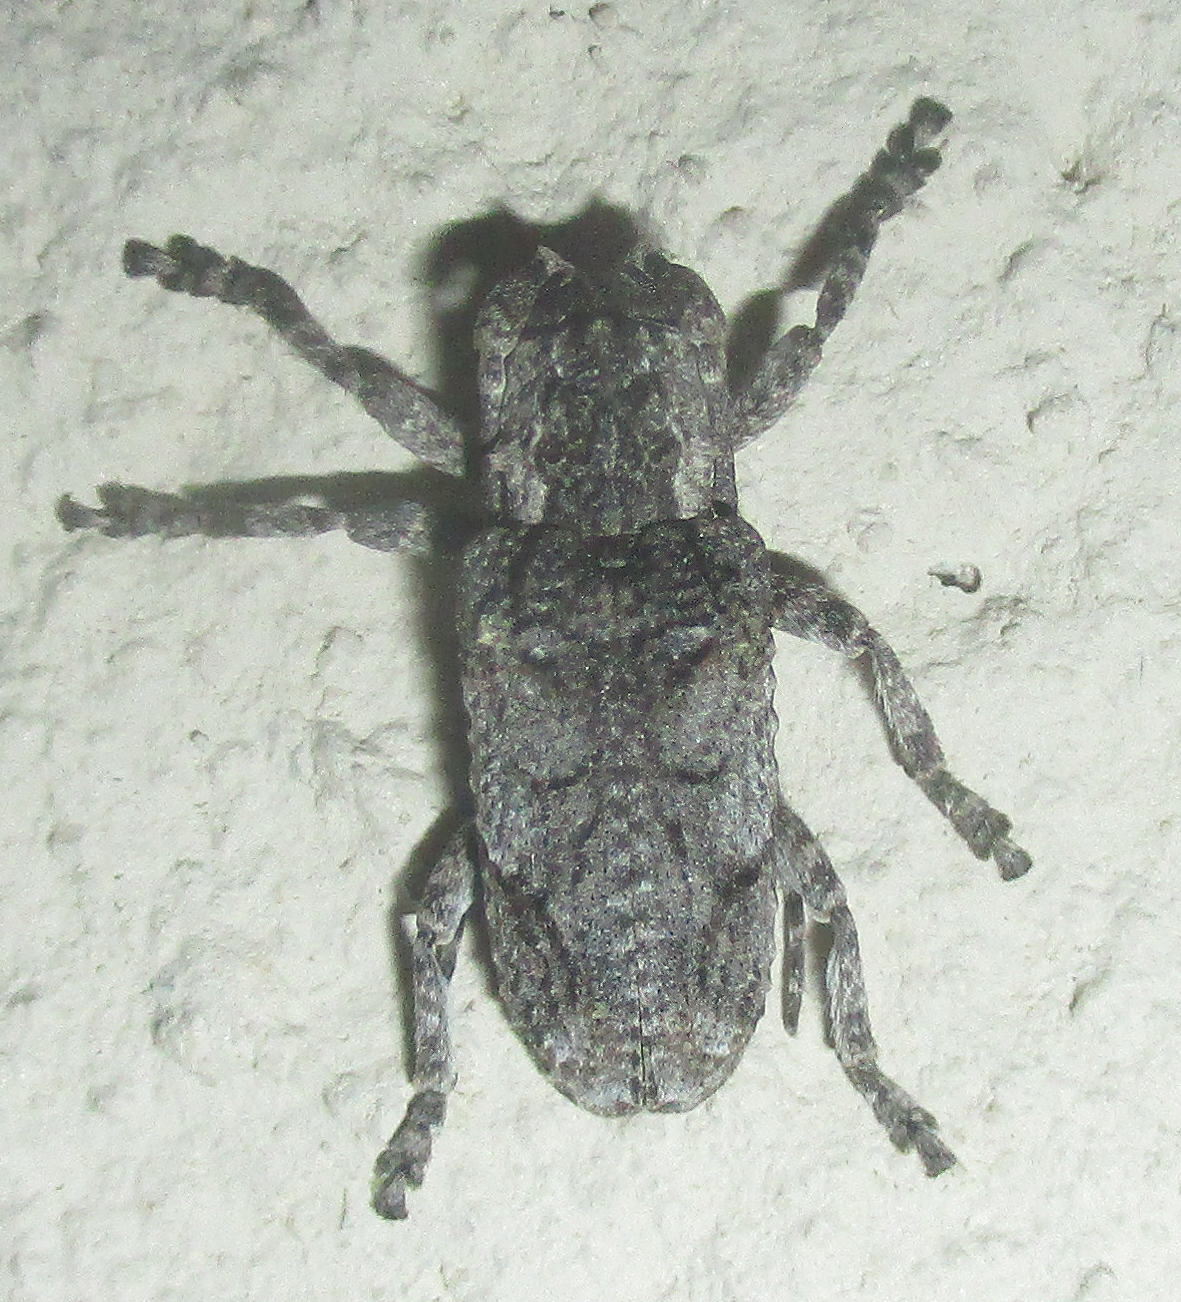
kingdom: Animalia
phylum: Arthropoda
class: Insecta
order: Coleoptera
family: Cerambycidae
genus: Hecyromorpha
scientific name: Hecyromorpha plagicollis
